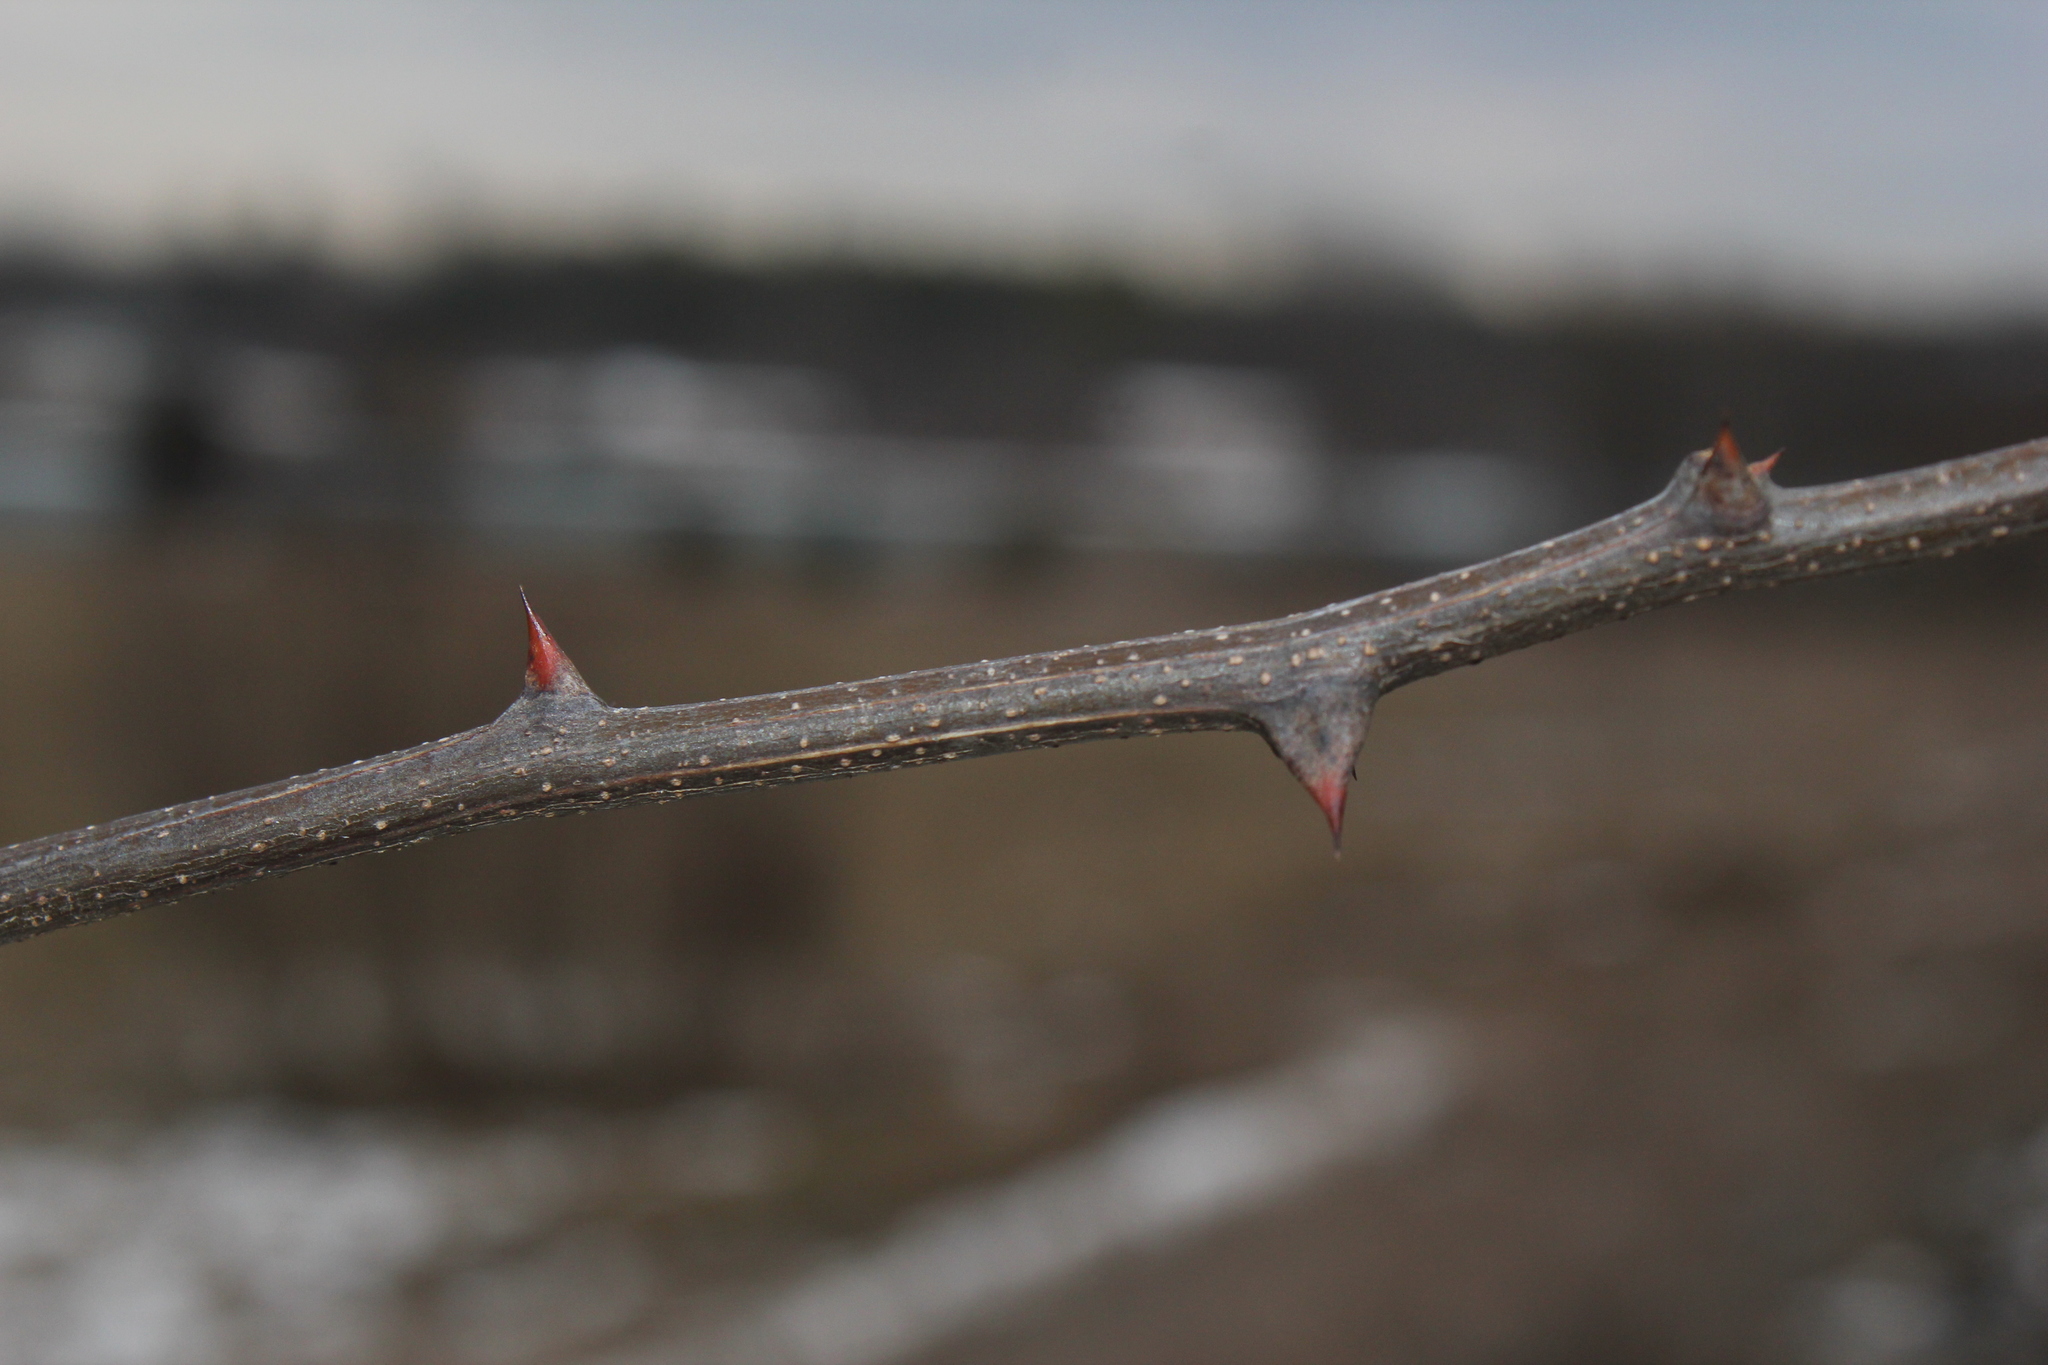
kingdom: Plantae
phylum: Tracheophyta
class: Magnoliopsida
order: Fabales
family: Fabaceae
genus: Robinia
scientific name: Robinia pseudoacacia
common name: Black locust
